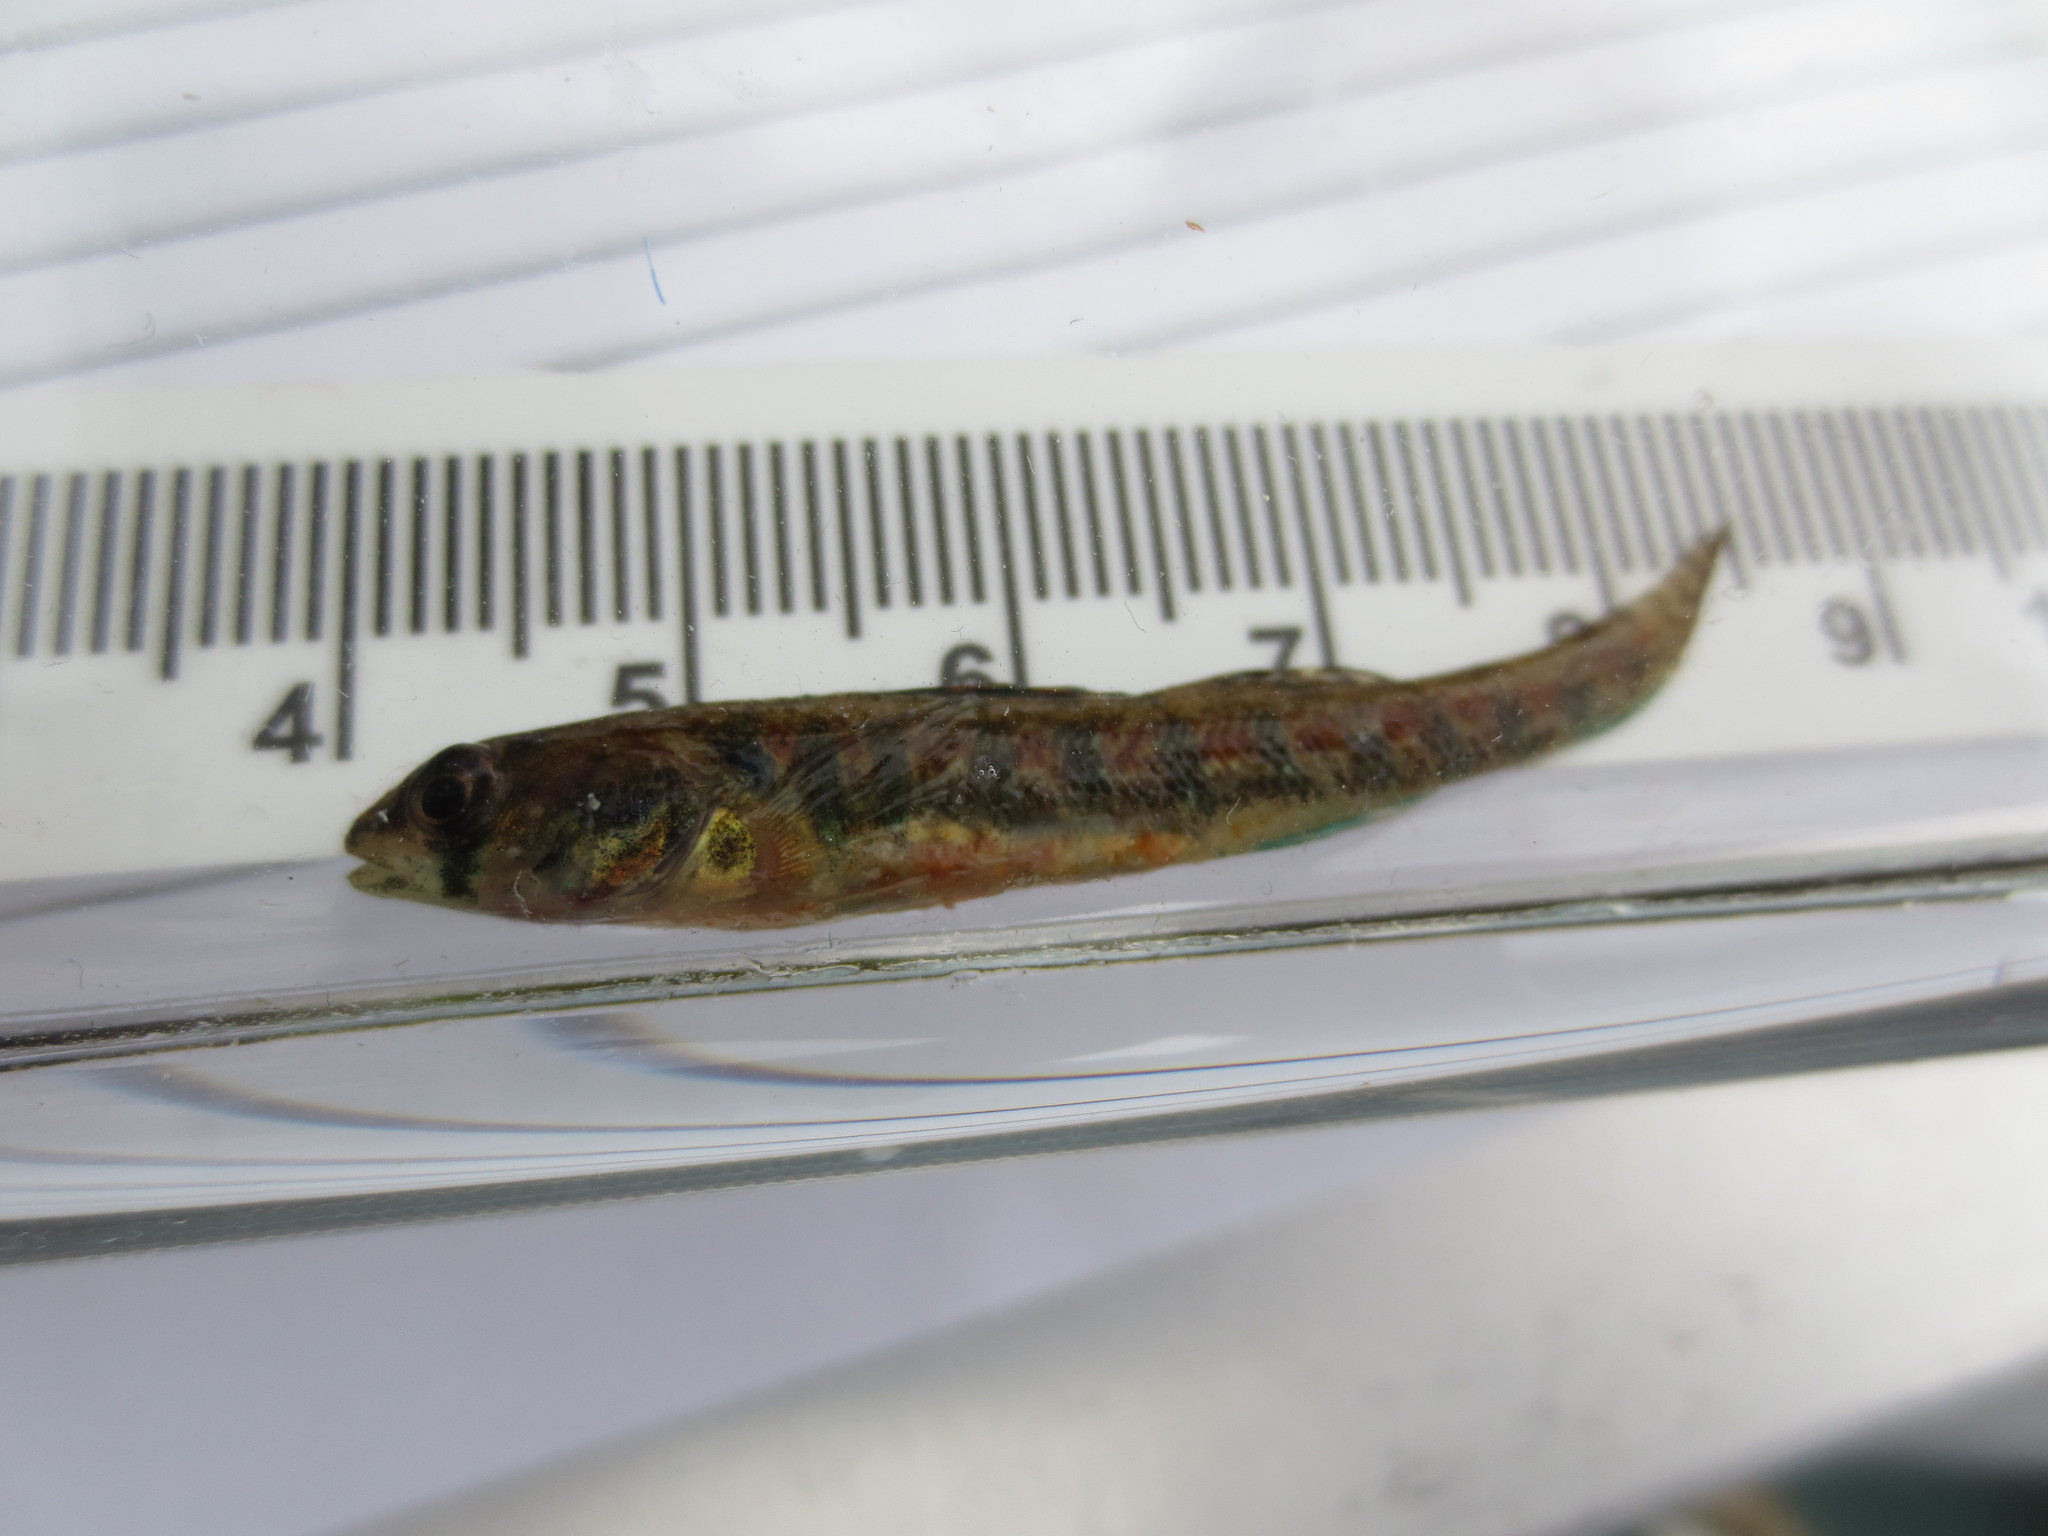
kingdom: Animalia
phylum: Chordata
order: Perciformes
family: Percidae
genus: Etheostoma
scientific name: Etheostoma exile
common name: Iowa darter
